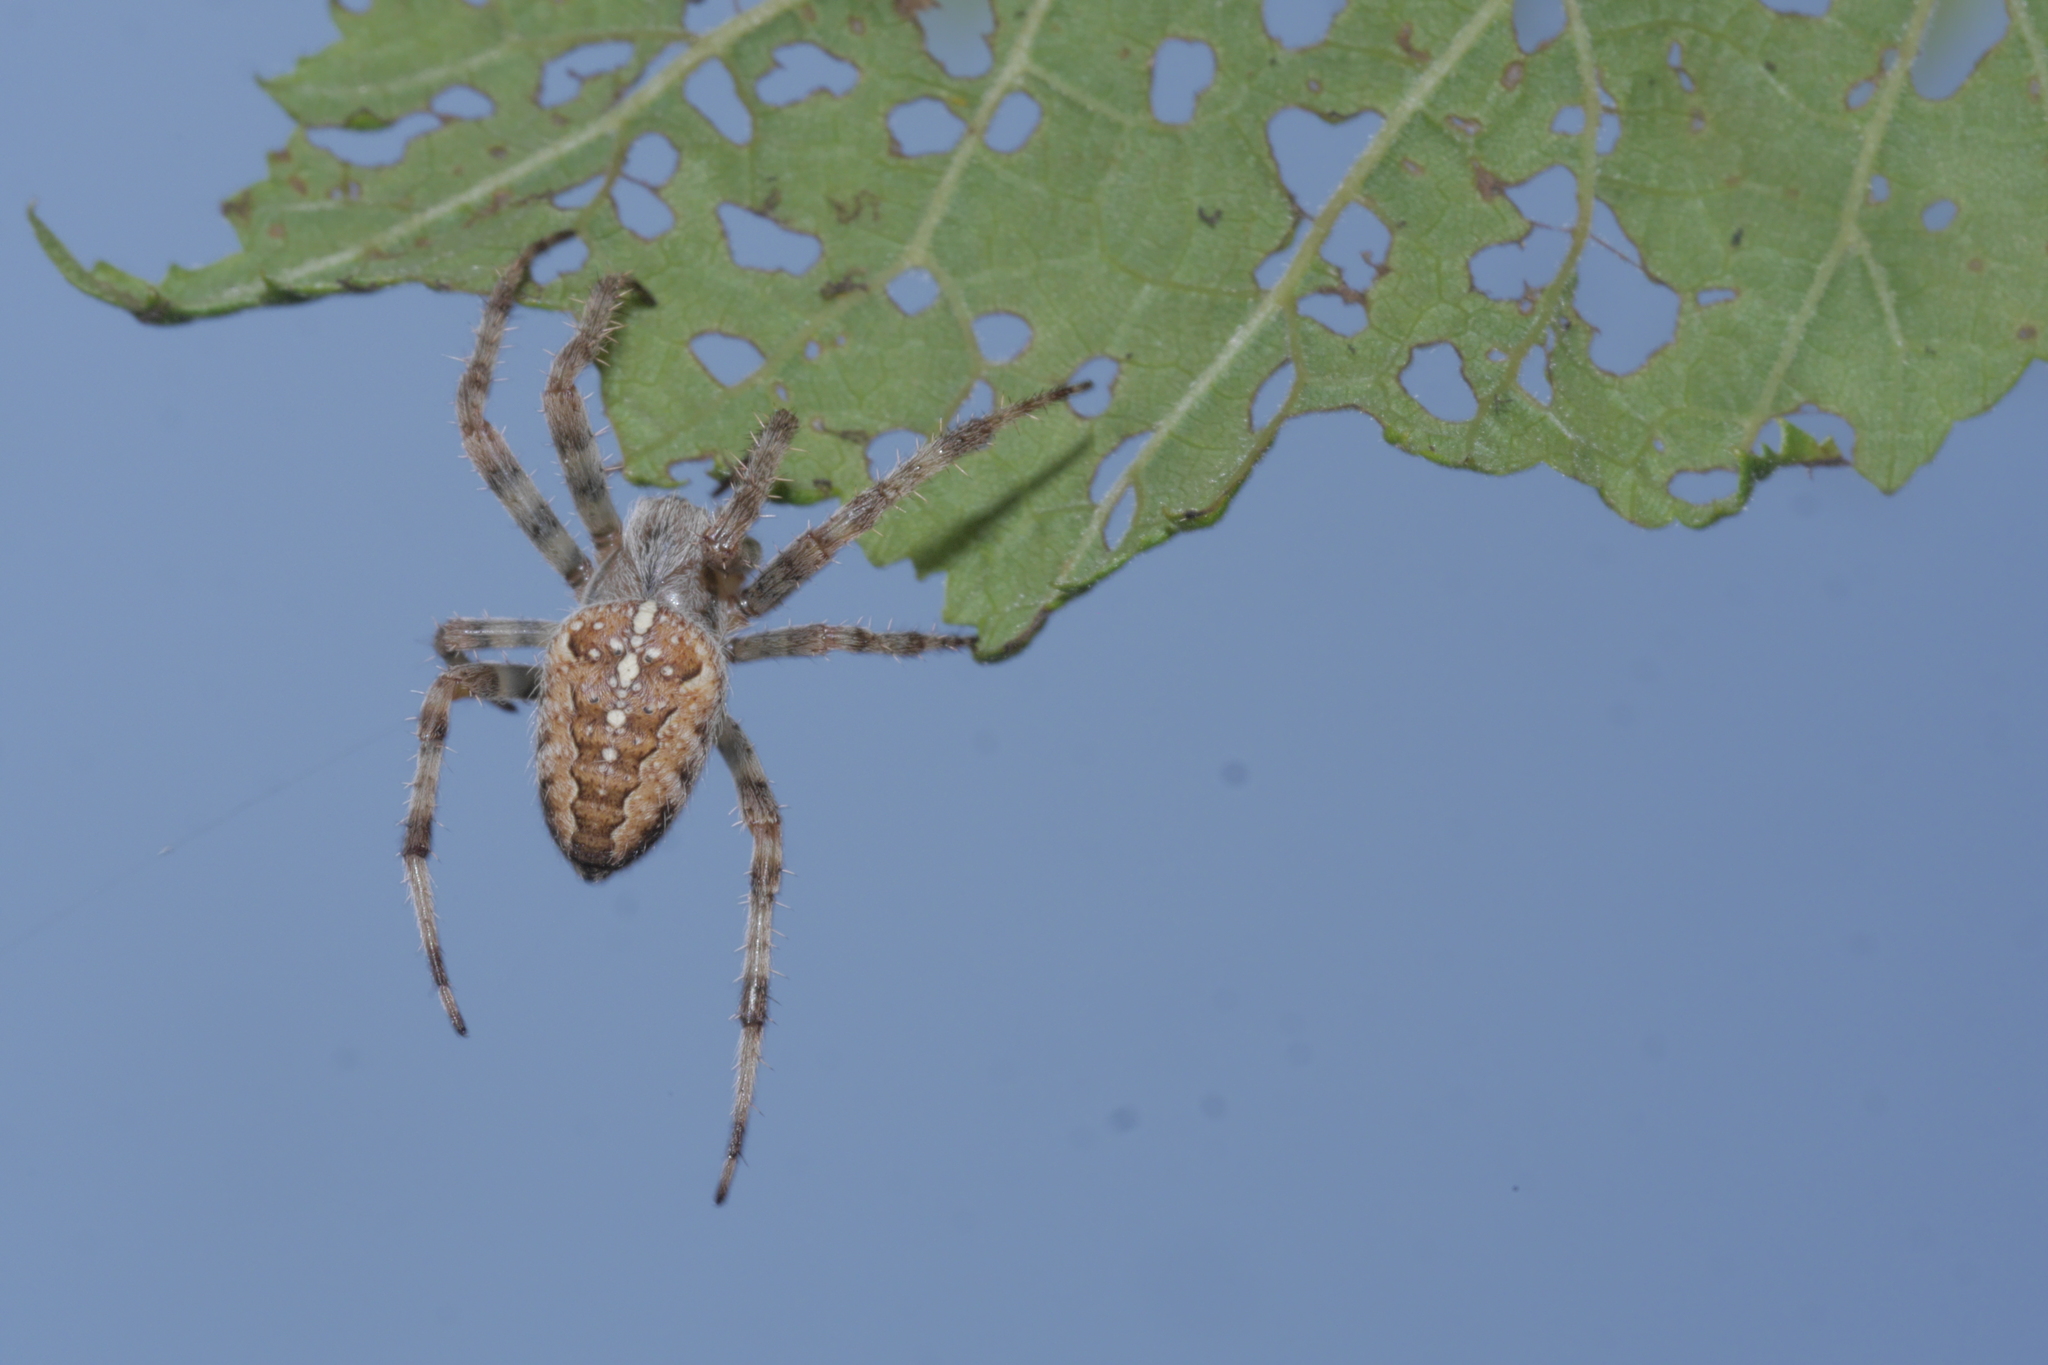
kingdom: Animalia
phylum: Arthropoda
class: Arachnida
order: Araneae
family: Araneidae
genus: Araneus
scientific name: Araneus diadematus
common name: Cross orbweaver
